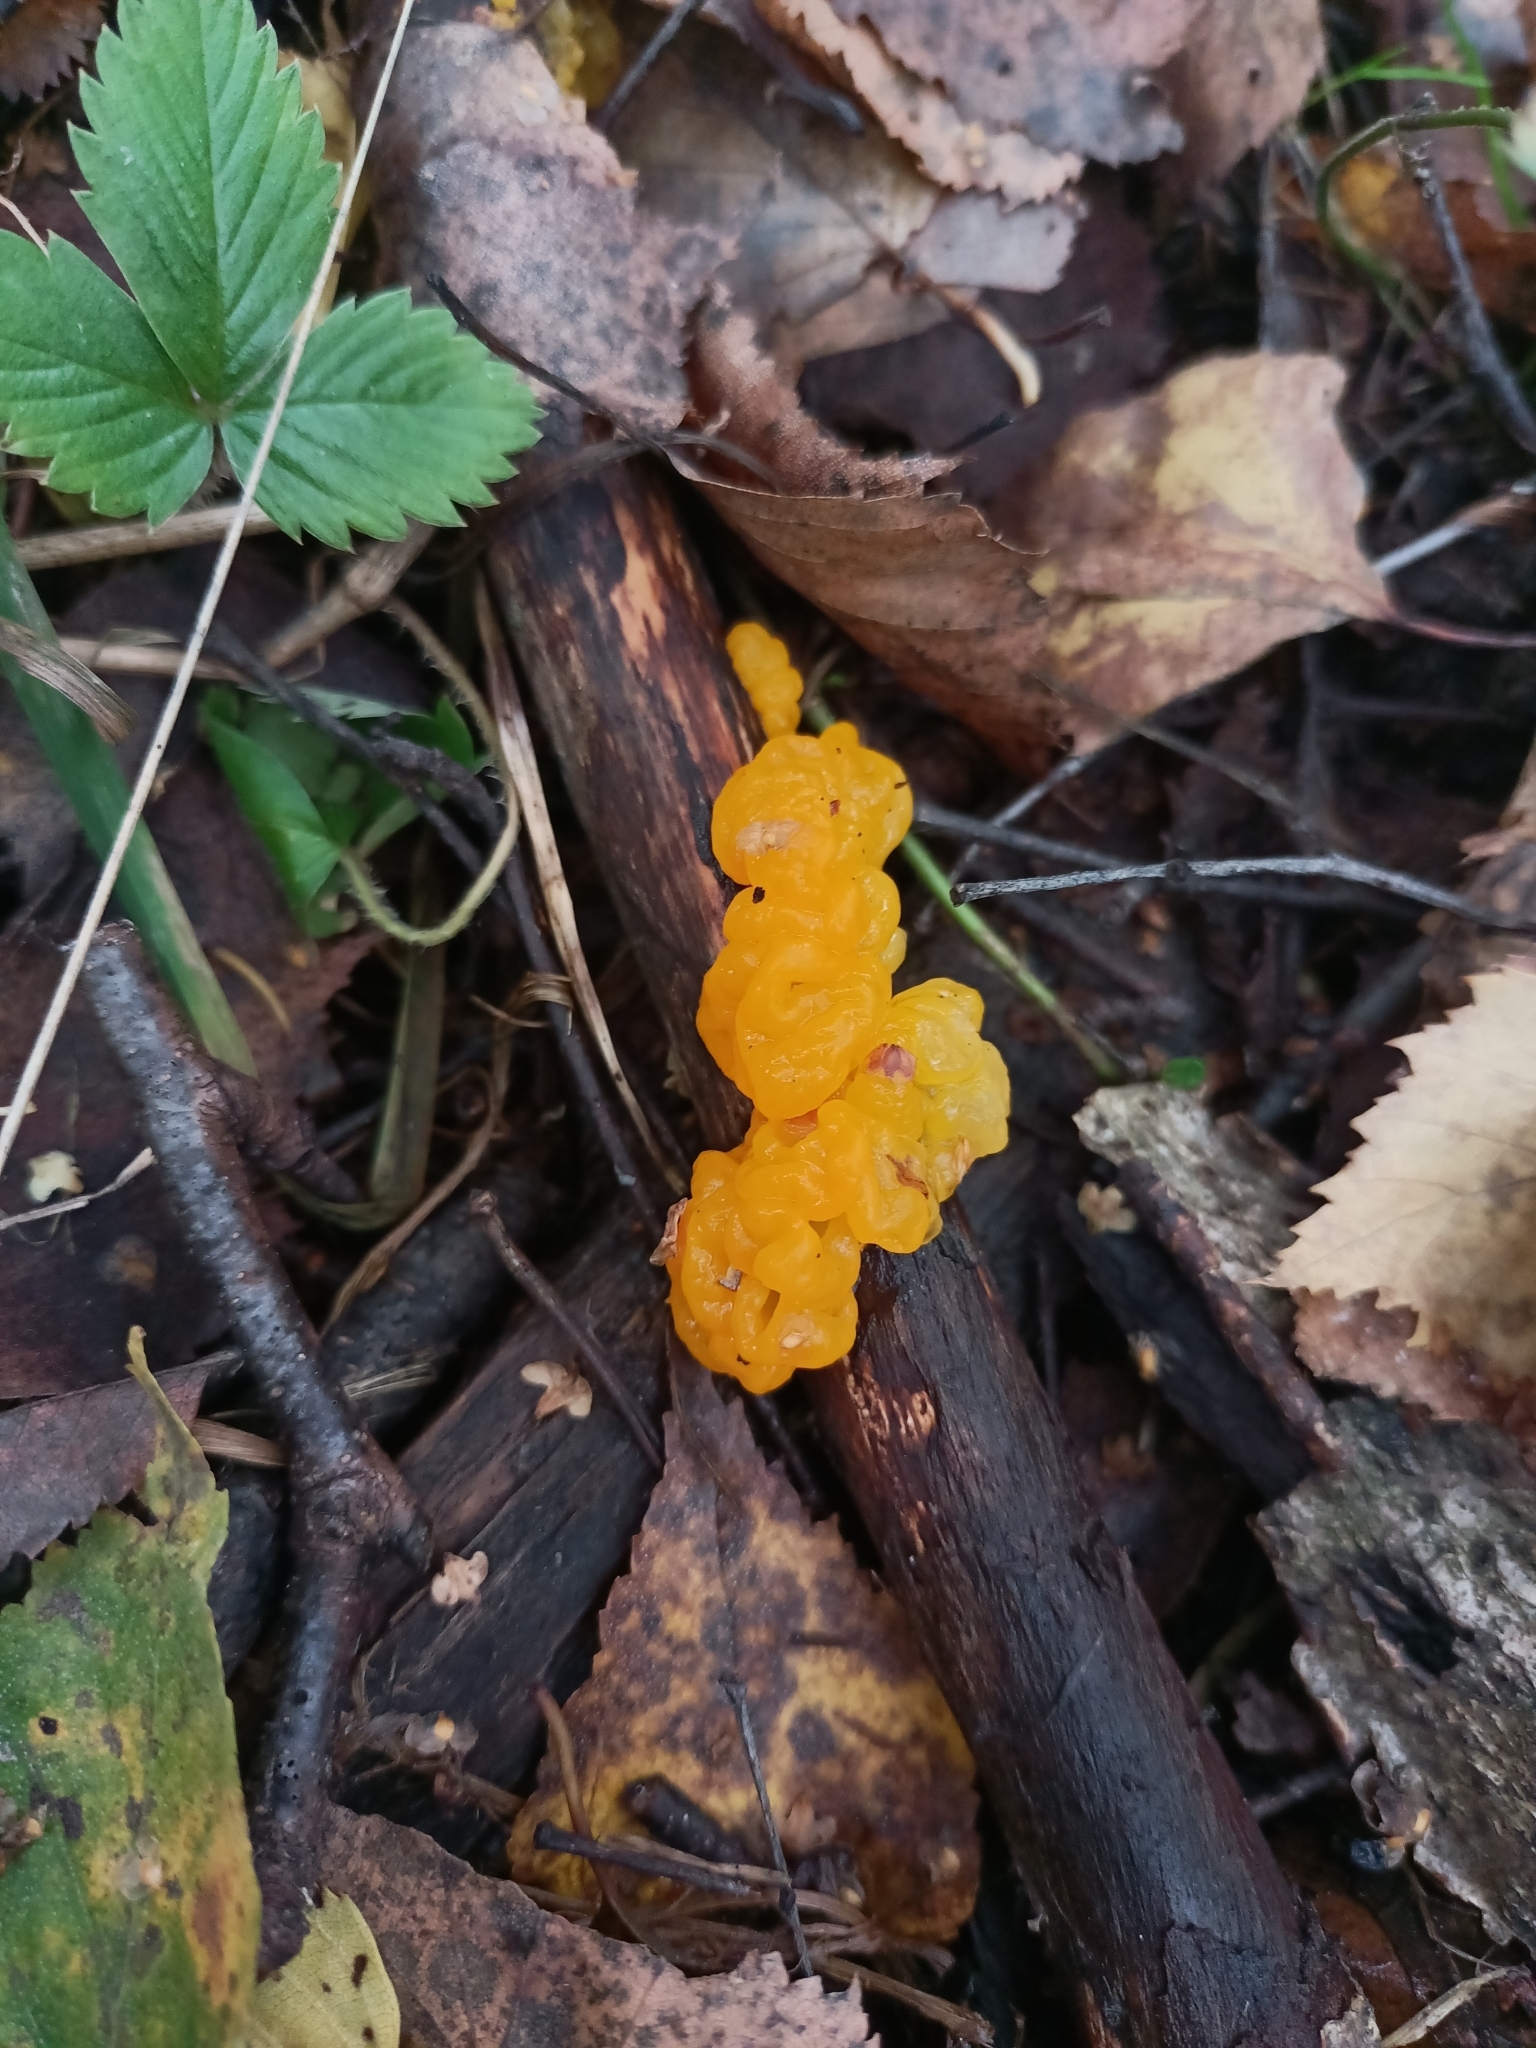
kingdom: Fungi
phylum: Basidiomycota
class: Tremellomycetes
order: Tremellales
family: Tremellaceae
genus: Tremella
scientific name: Tremella mesenterica
